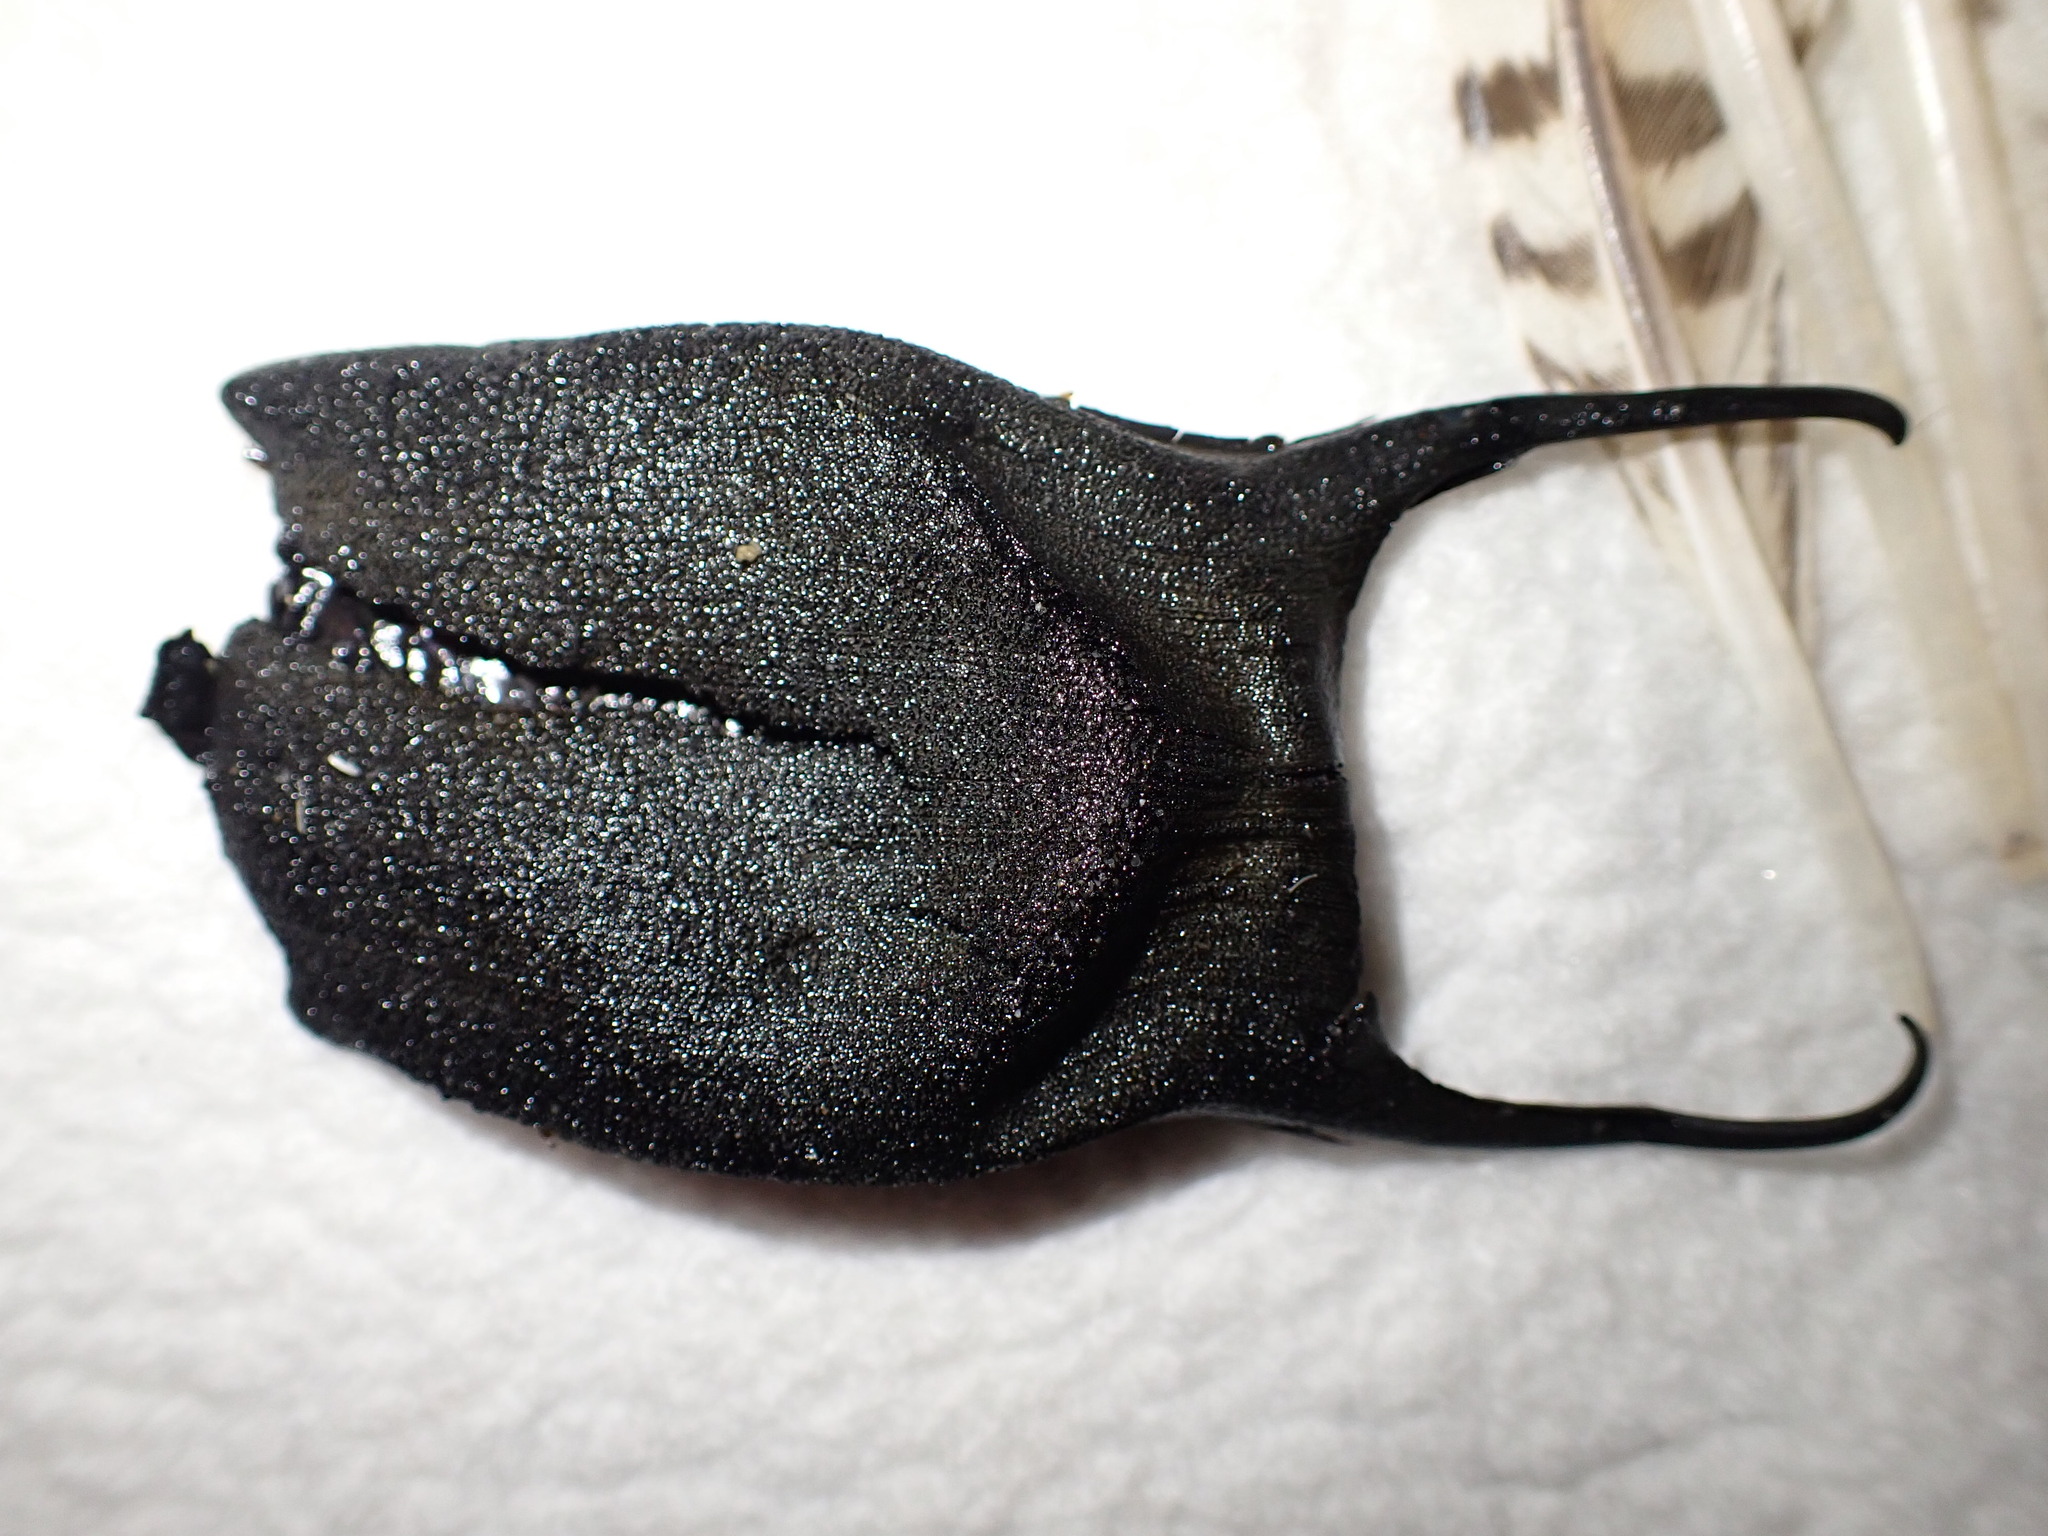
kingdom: Animalia
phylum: Chordata
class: Elasmobranchii
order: Rajiformes
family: Rajidae
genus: Amblyraja
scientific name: Amblyraja radiata
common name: Starry ray
